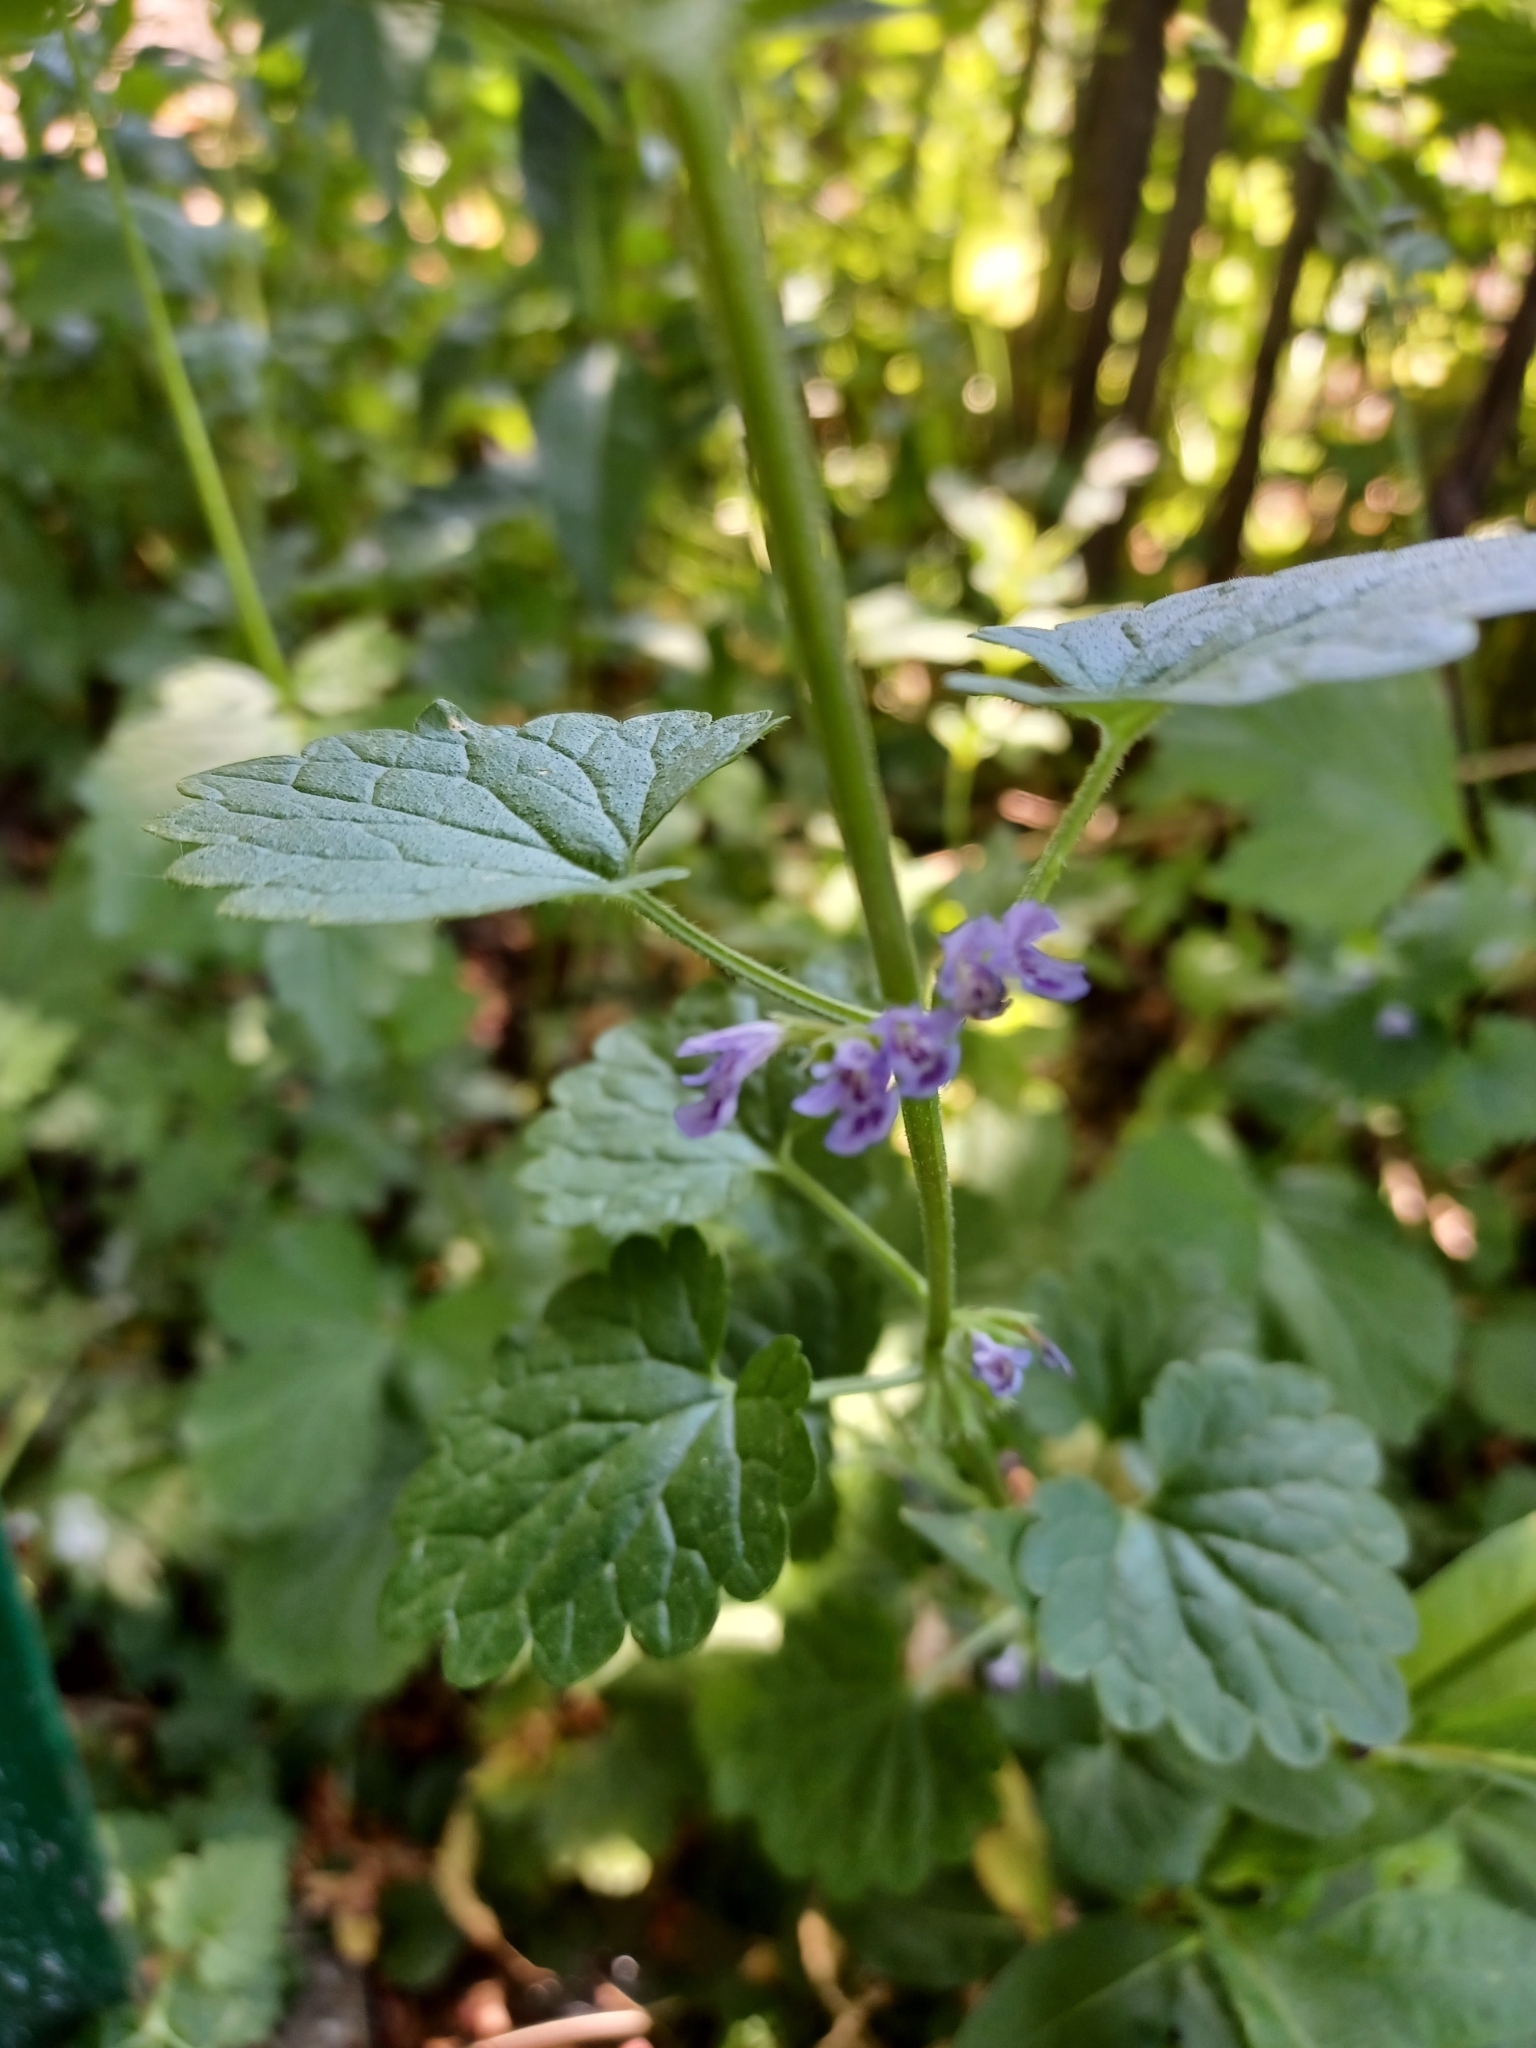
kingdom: Plantae
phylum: Tracheophyta
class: Magnoliopsida
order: Lamiales
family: Lamiaceae
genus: Glechoma
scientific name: Glechoma hederacea
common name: Ground ivy
